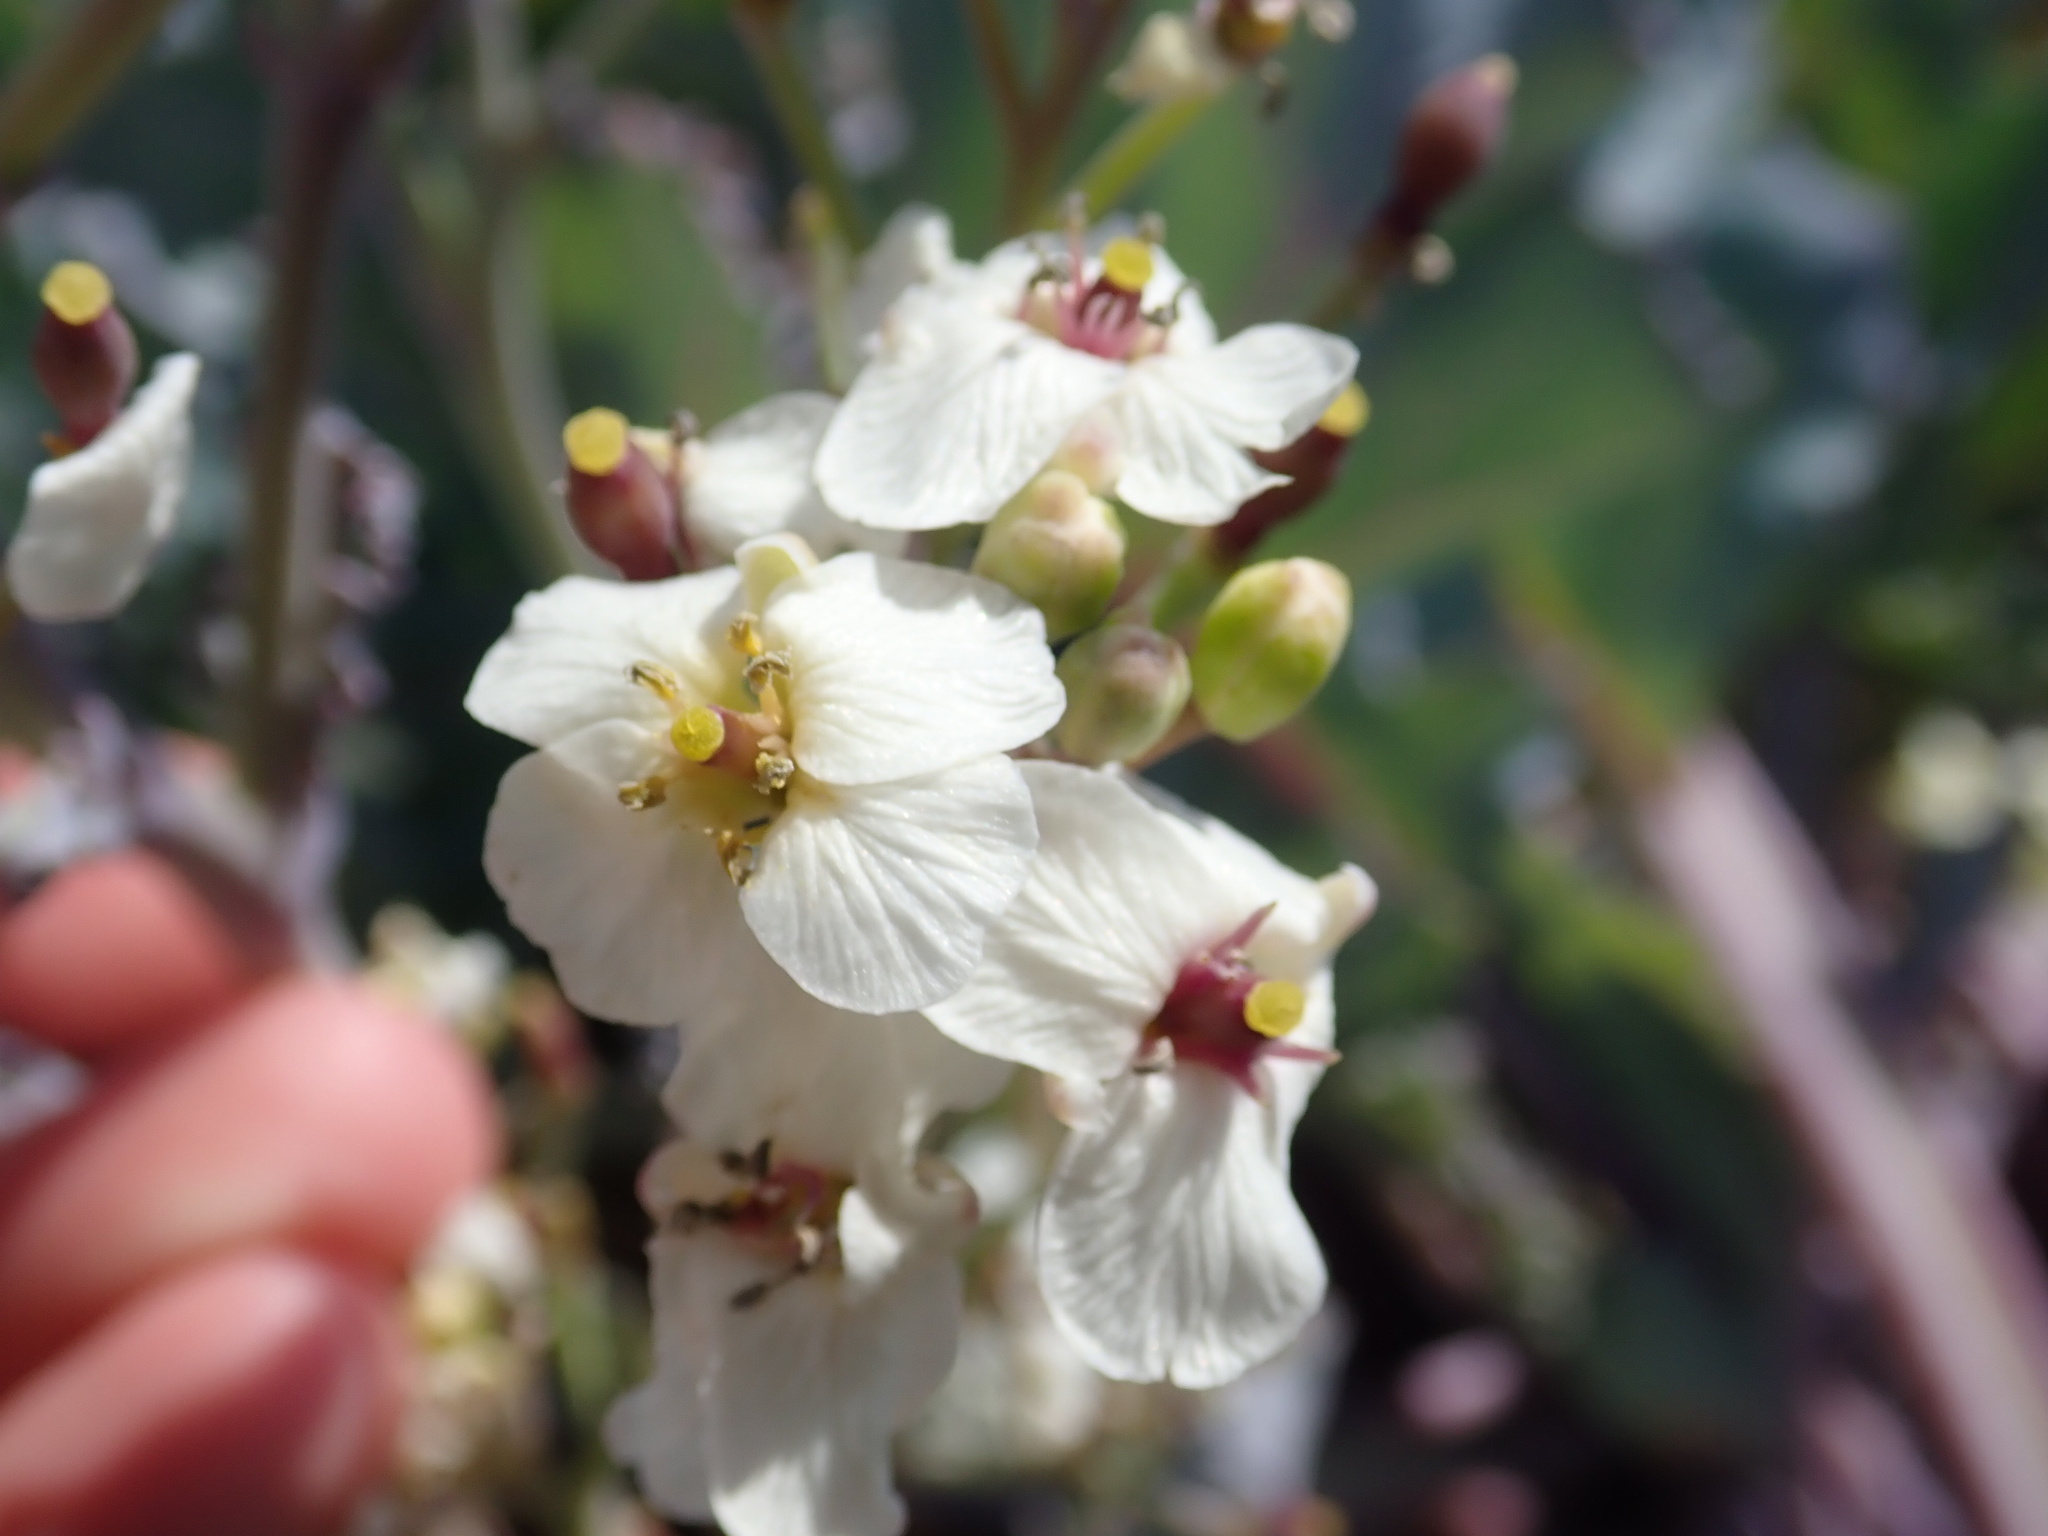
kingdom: Plantae
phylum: Tracheophyta
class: Magnoliopsida
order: Brassicales
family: Brassicaceae
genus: Crambe
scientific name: Crambe maritima
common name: Sea-kale
